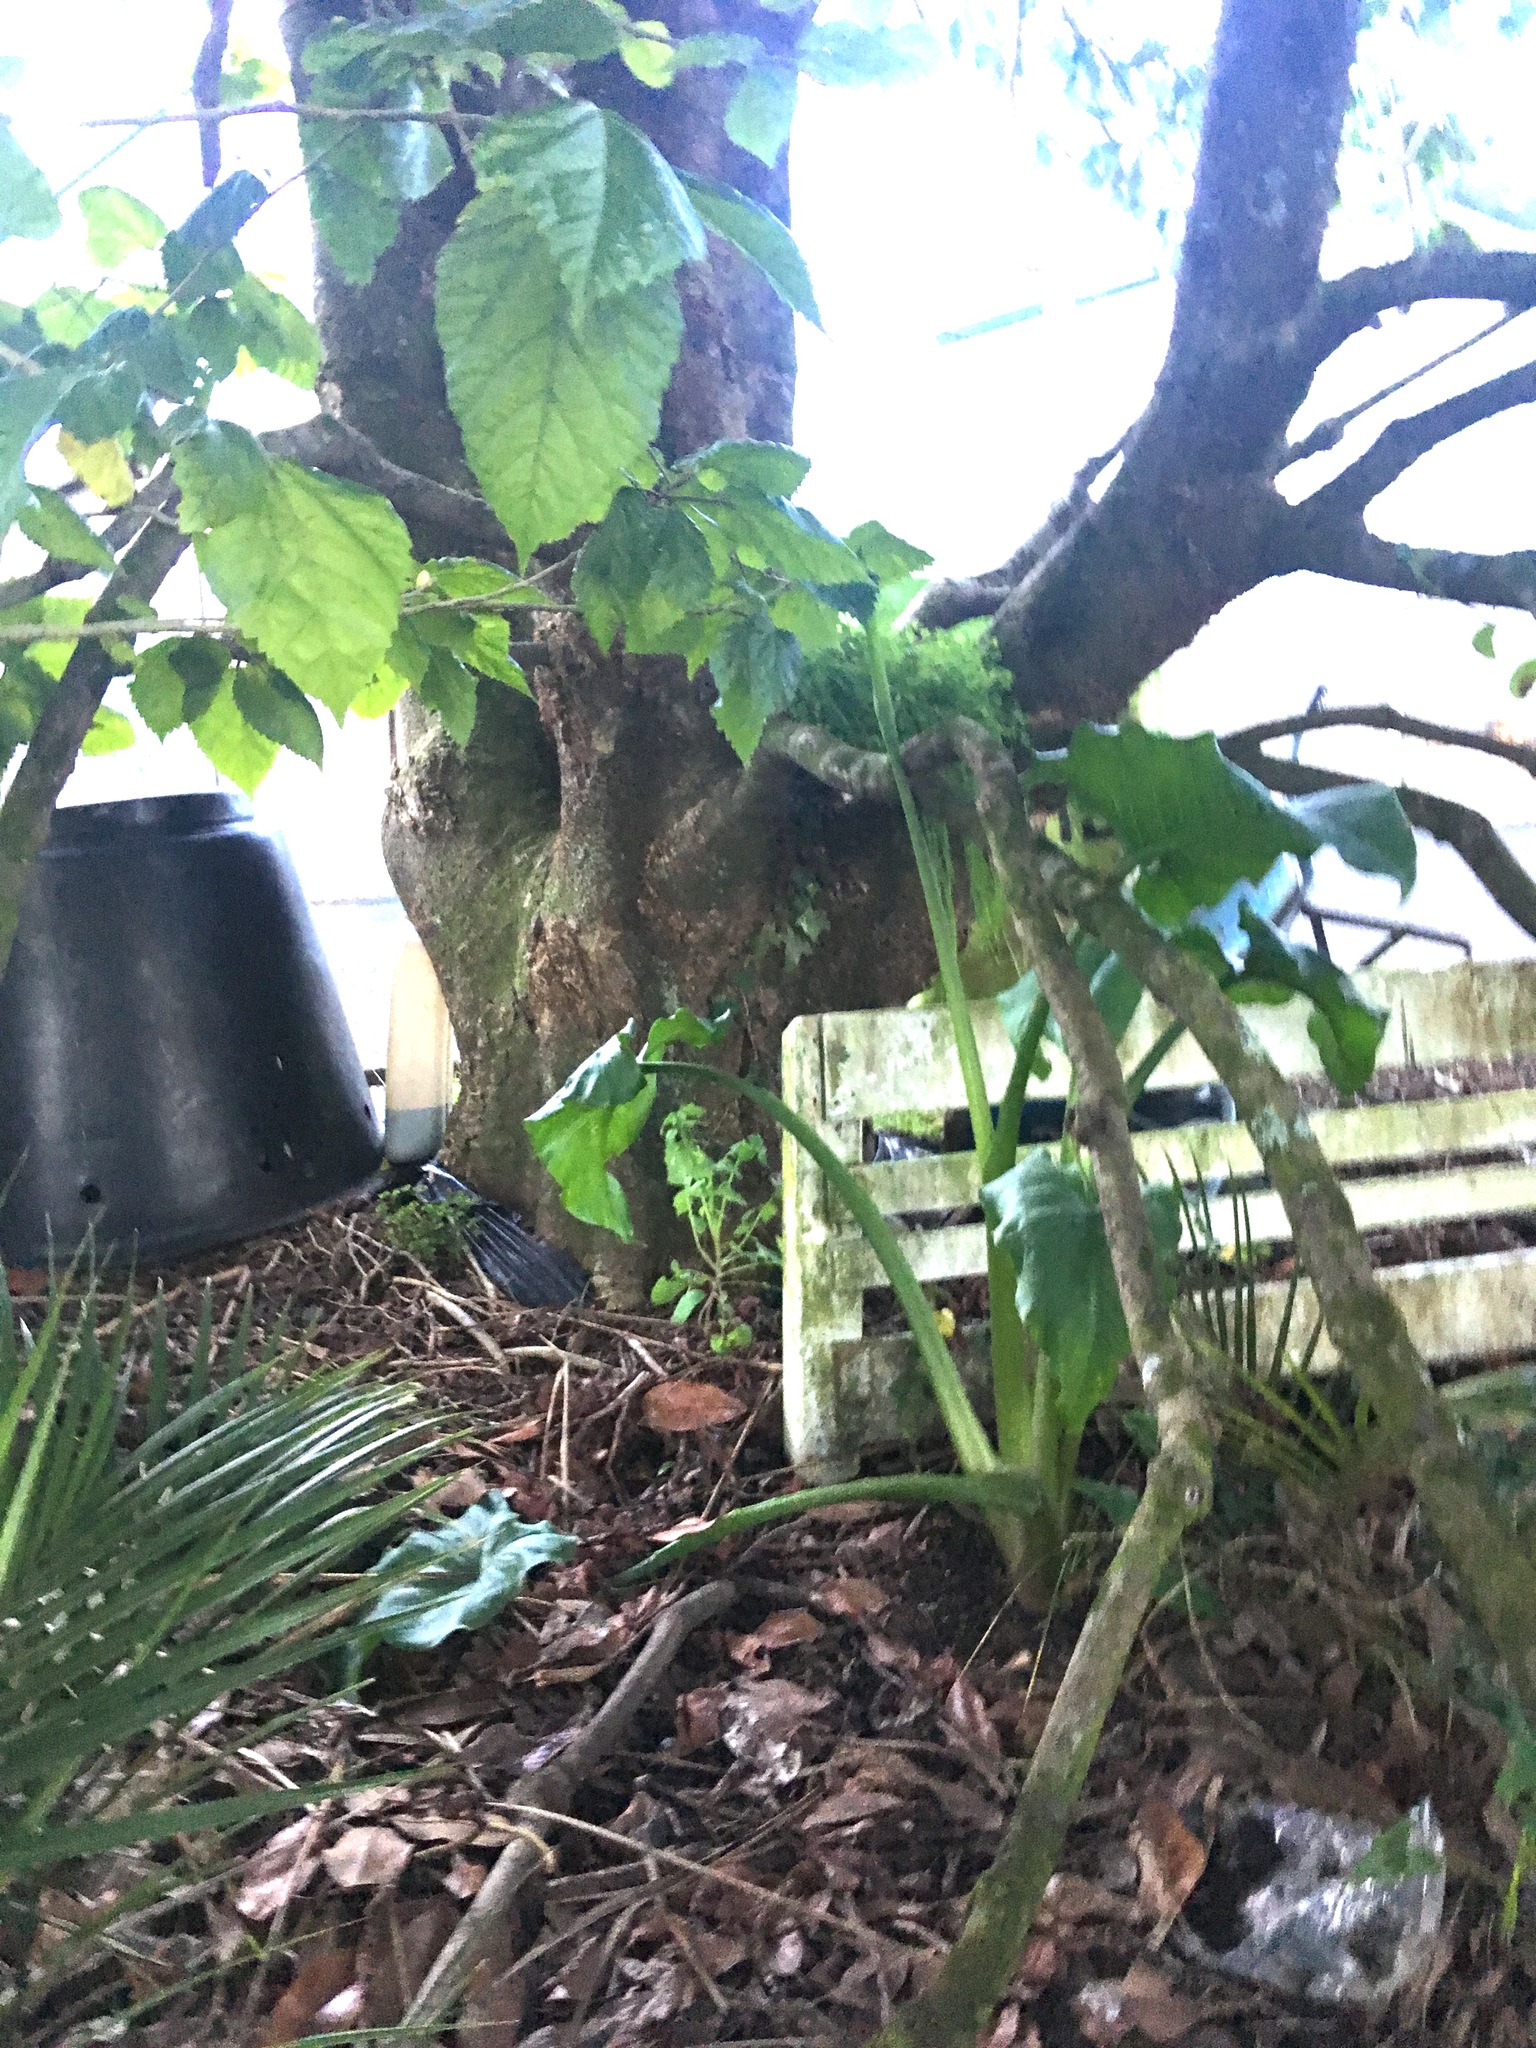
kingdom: Plantae
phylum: Tracheophyta
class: Liliopsida
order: Alismatales
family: Araceae
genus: Zantedeschia
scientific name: Zantedeschia aethiopica
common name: Altar-lily
